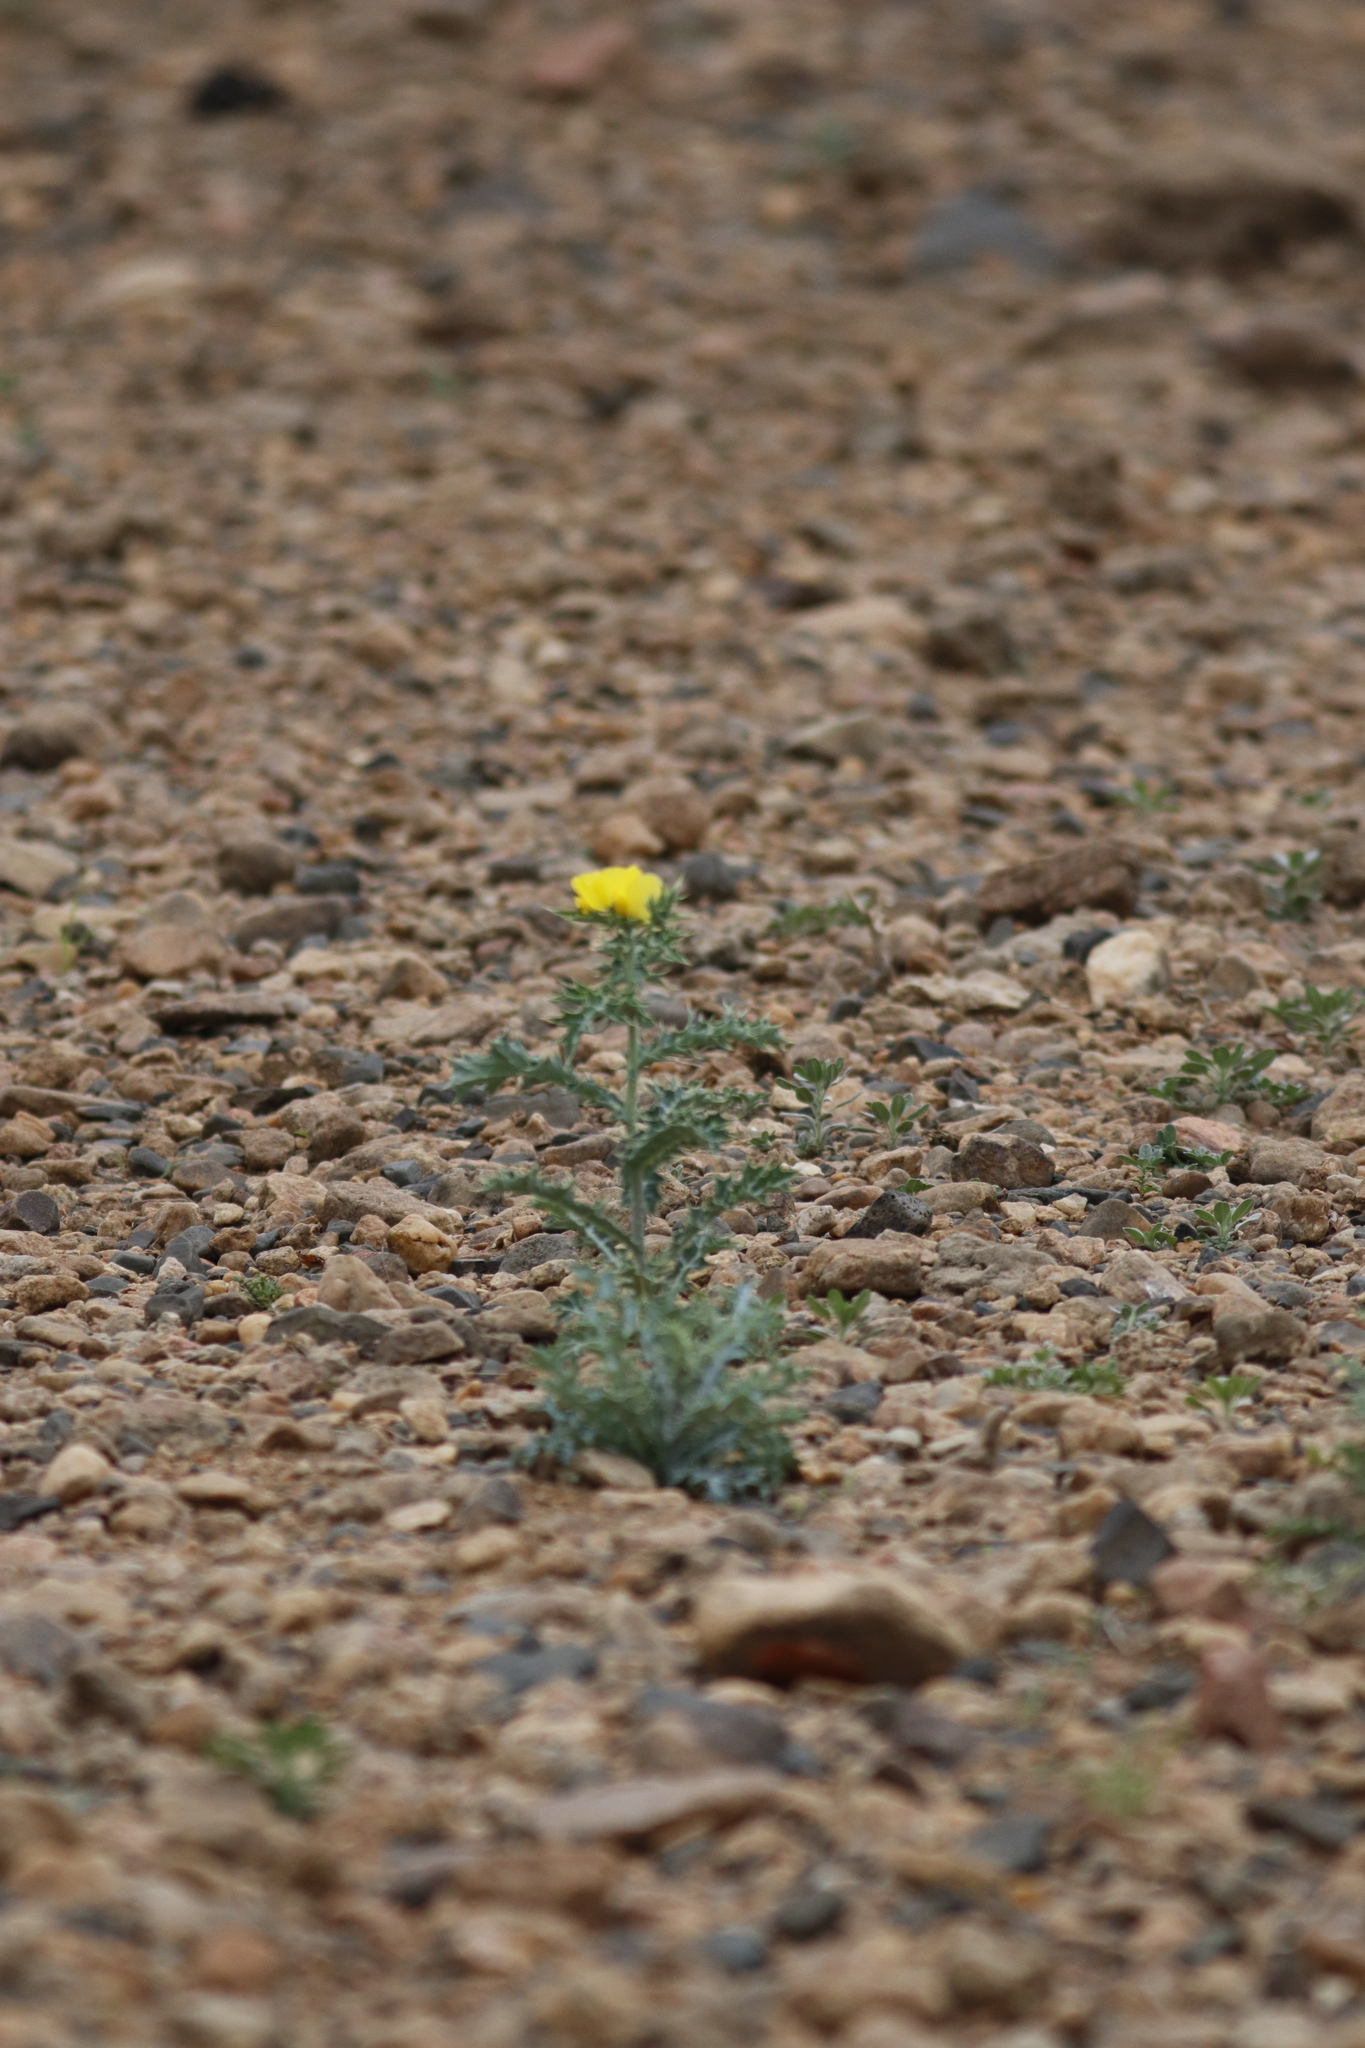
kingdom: Plantae
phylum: Tracheophyta
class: Magnoliopsida
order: Ranunculales
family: Papaveraceae
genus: Argemone
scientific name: Argemone mexicana
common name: Mexican poppy
